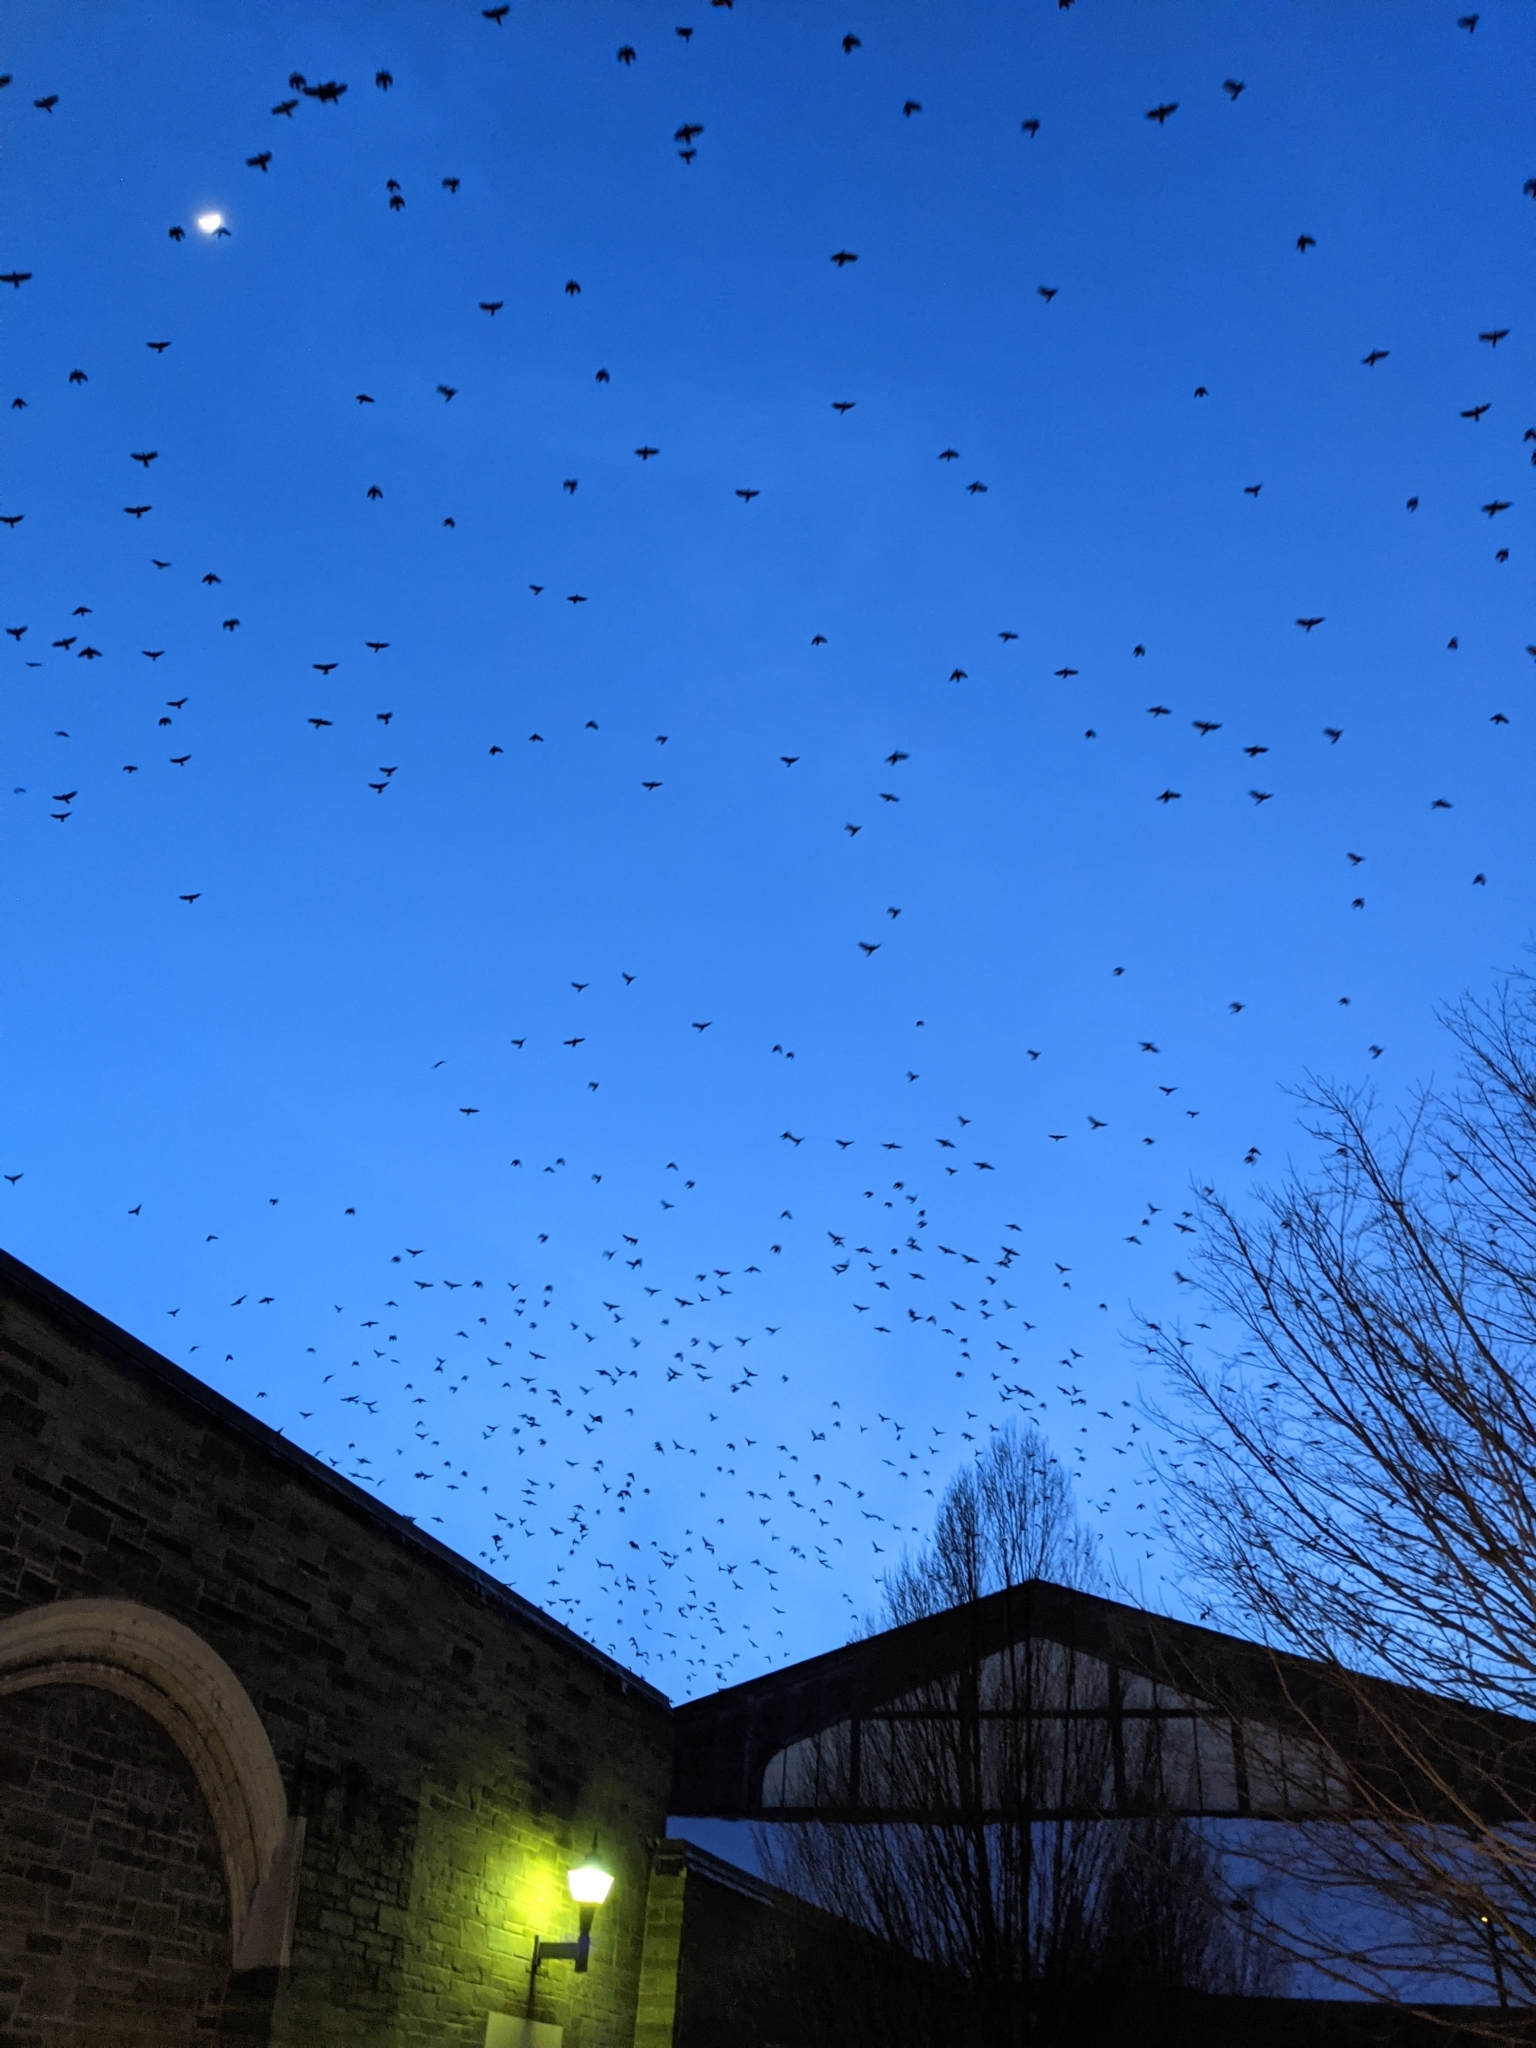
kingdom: Animalia
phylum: Chordata
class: Aves
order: Passeriformes
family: Corvidae
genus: Corvus
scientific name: Corvus brachyrhynchos
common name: American crow
